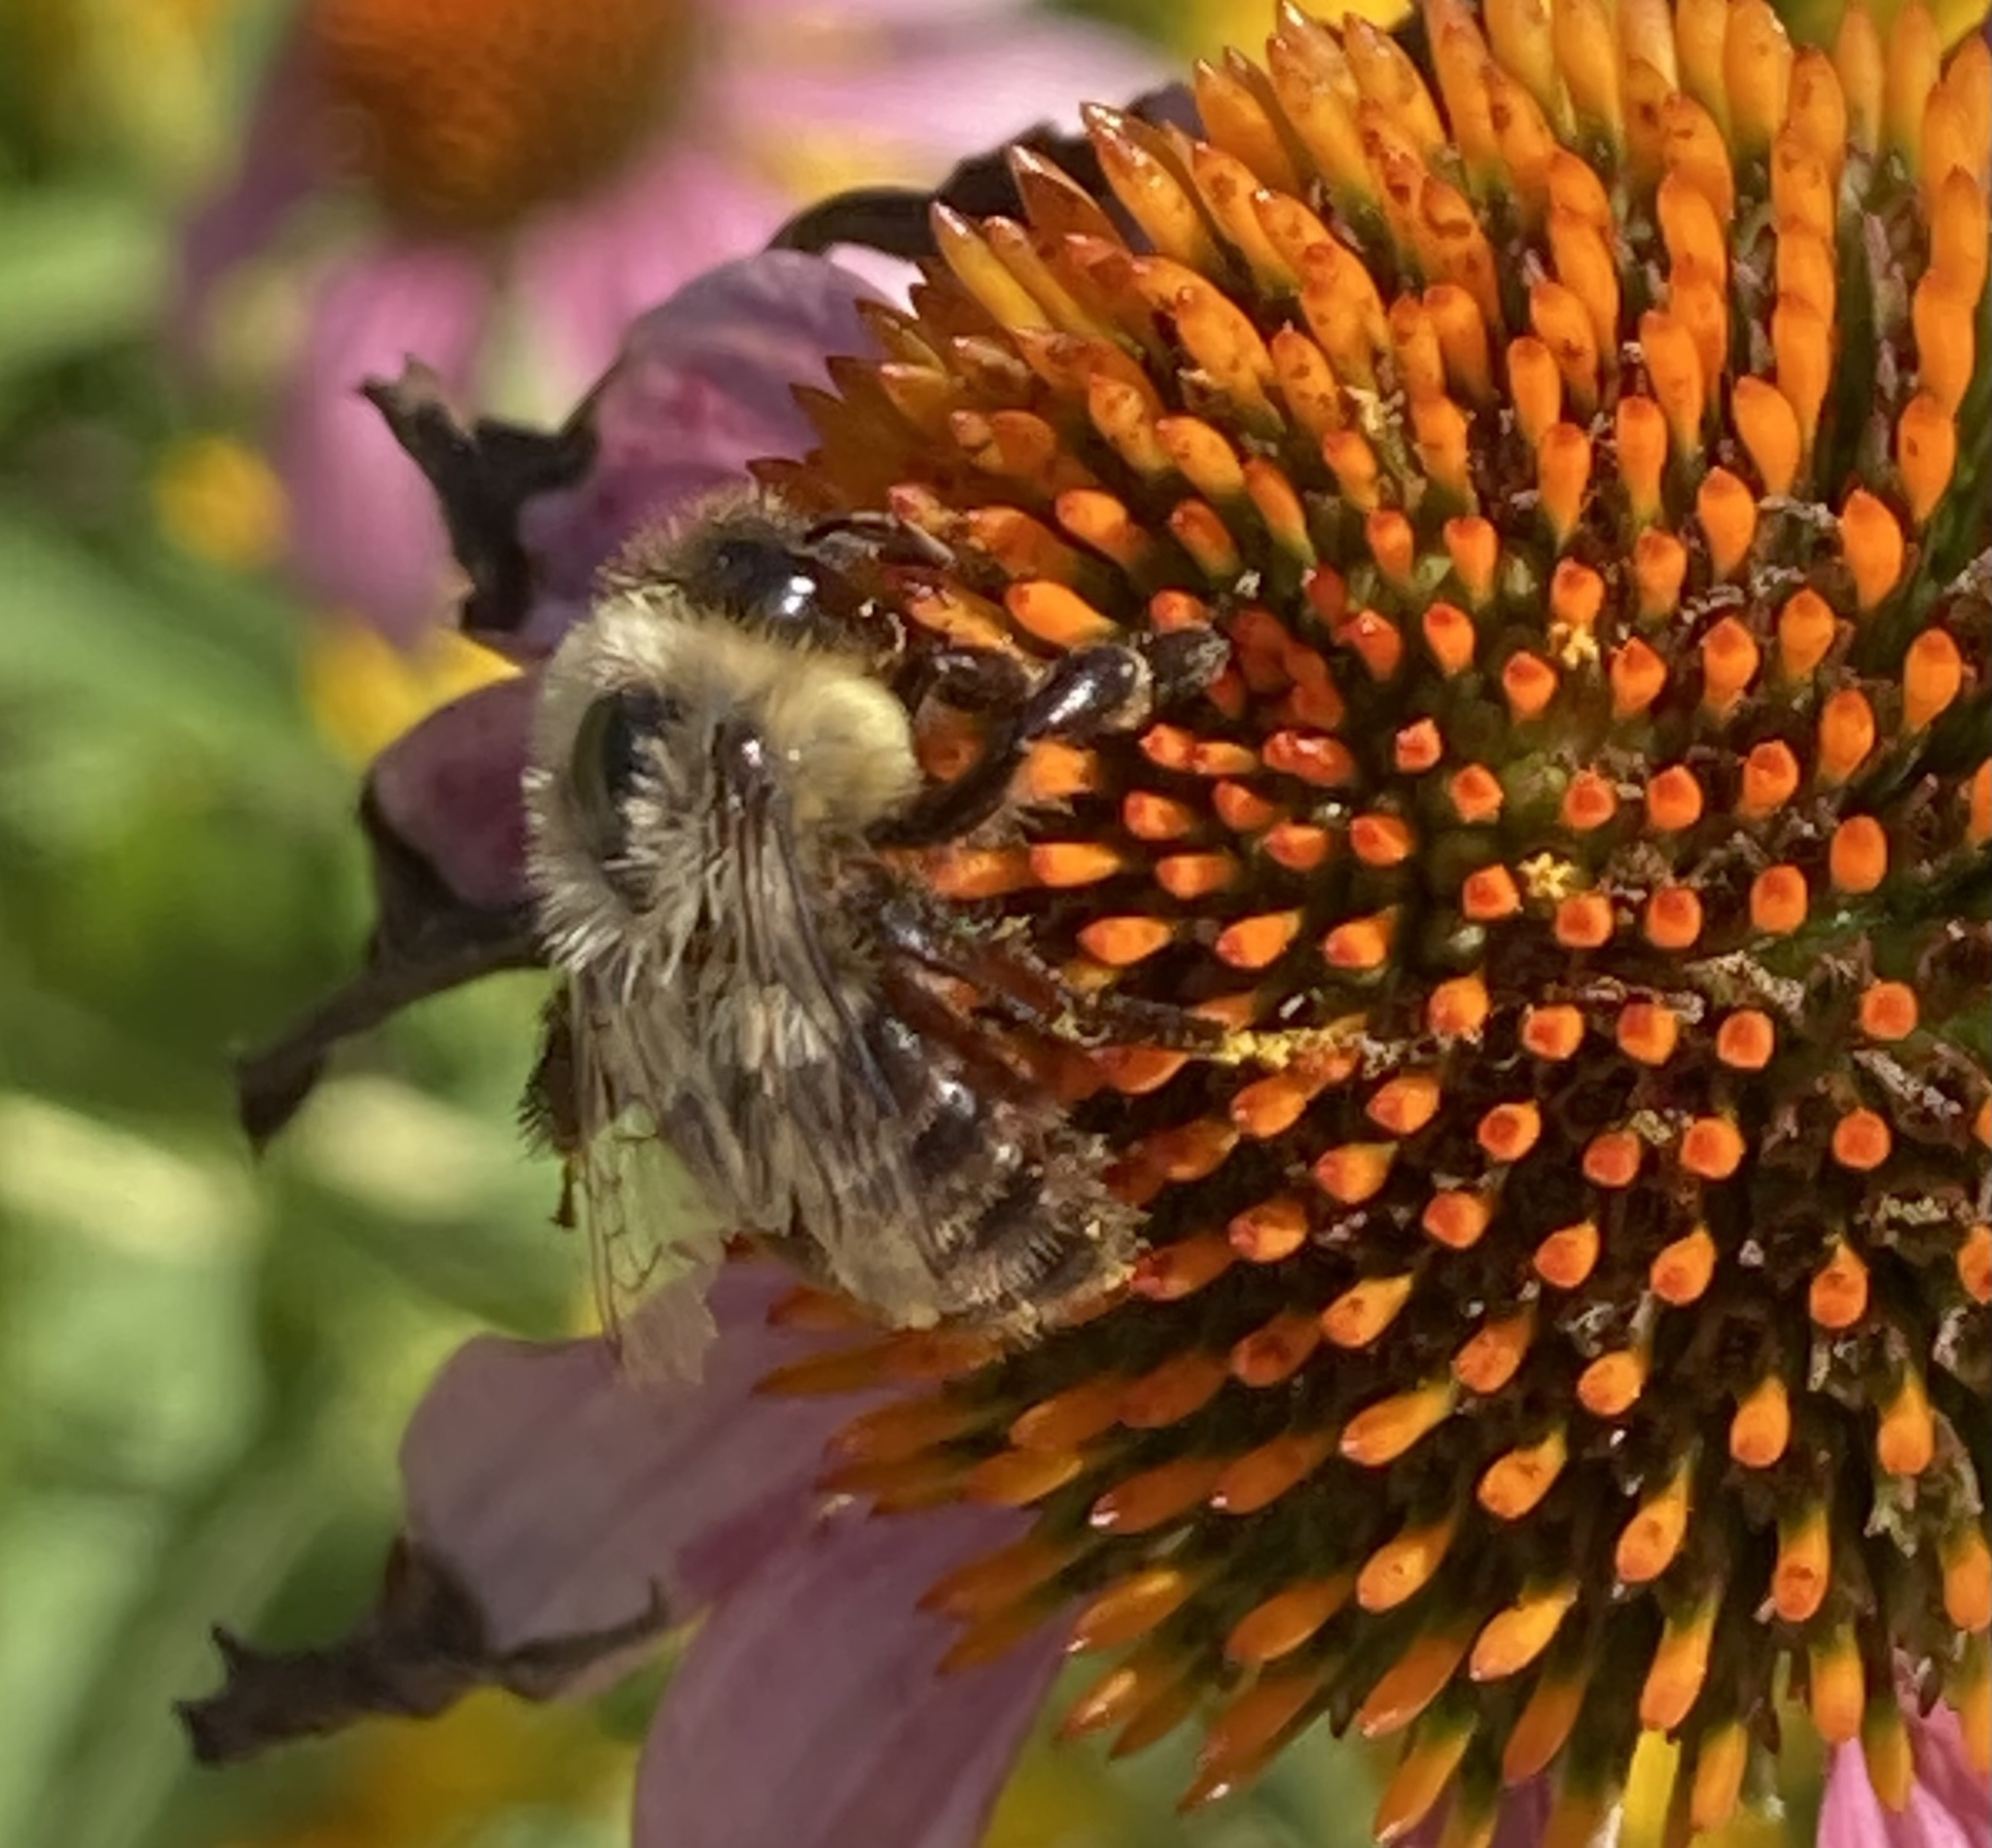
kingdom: Animalia
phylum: Arthropoda
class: Insecta
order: Hymenoptera
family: Apidae
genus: Bombus
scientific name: Bombus impatiens
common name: Common eastern bumble bee
